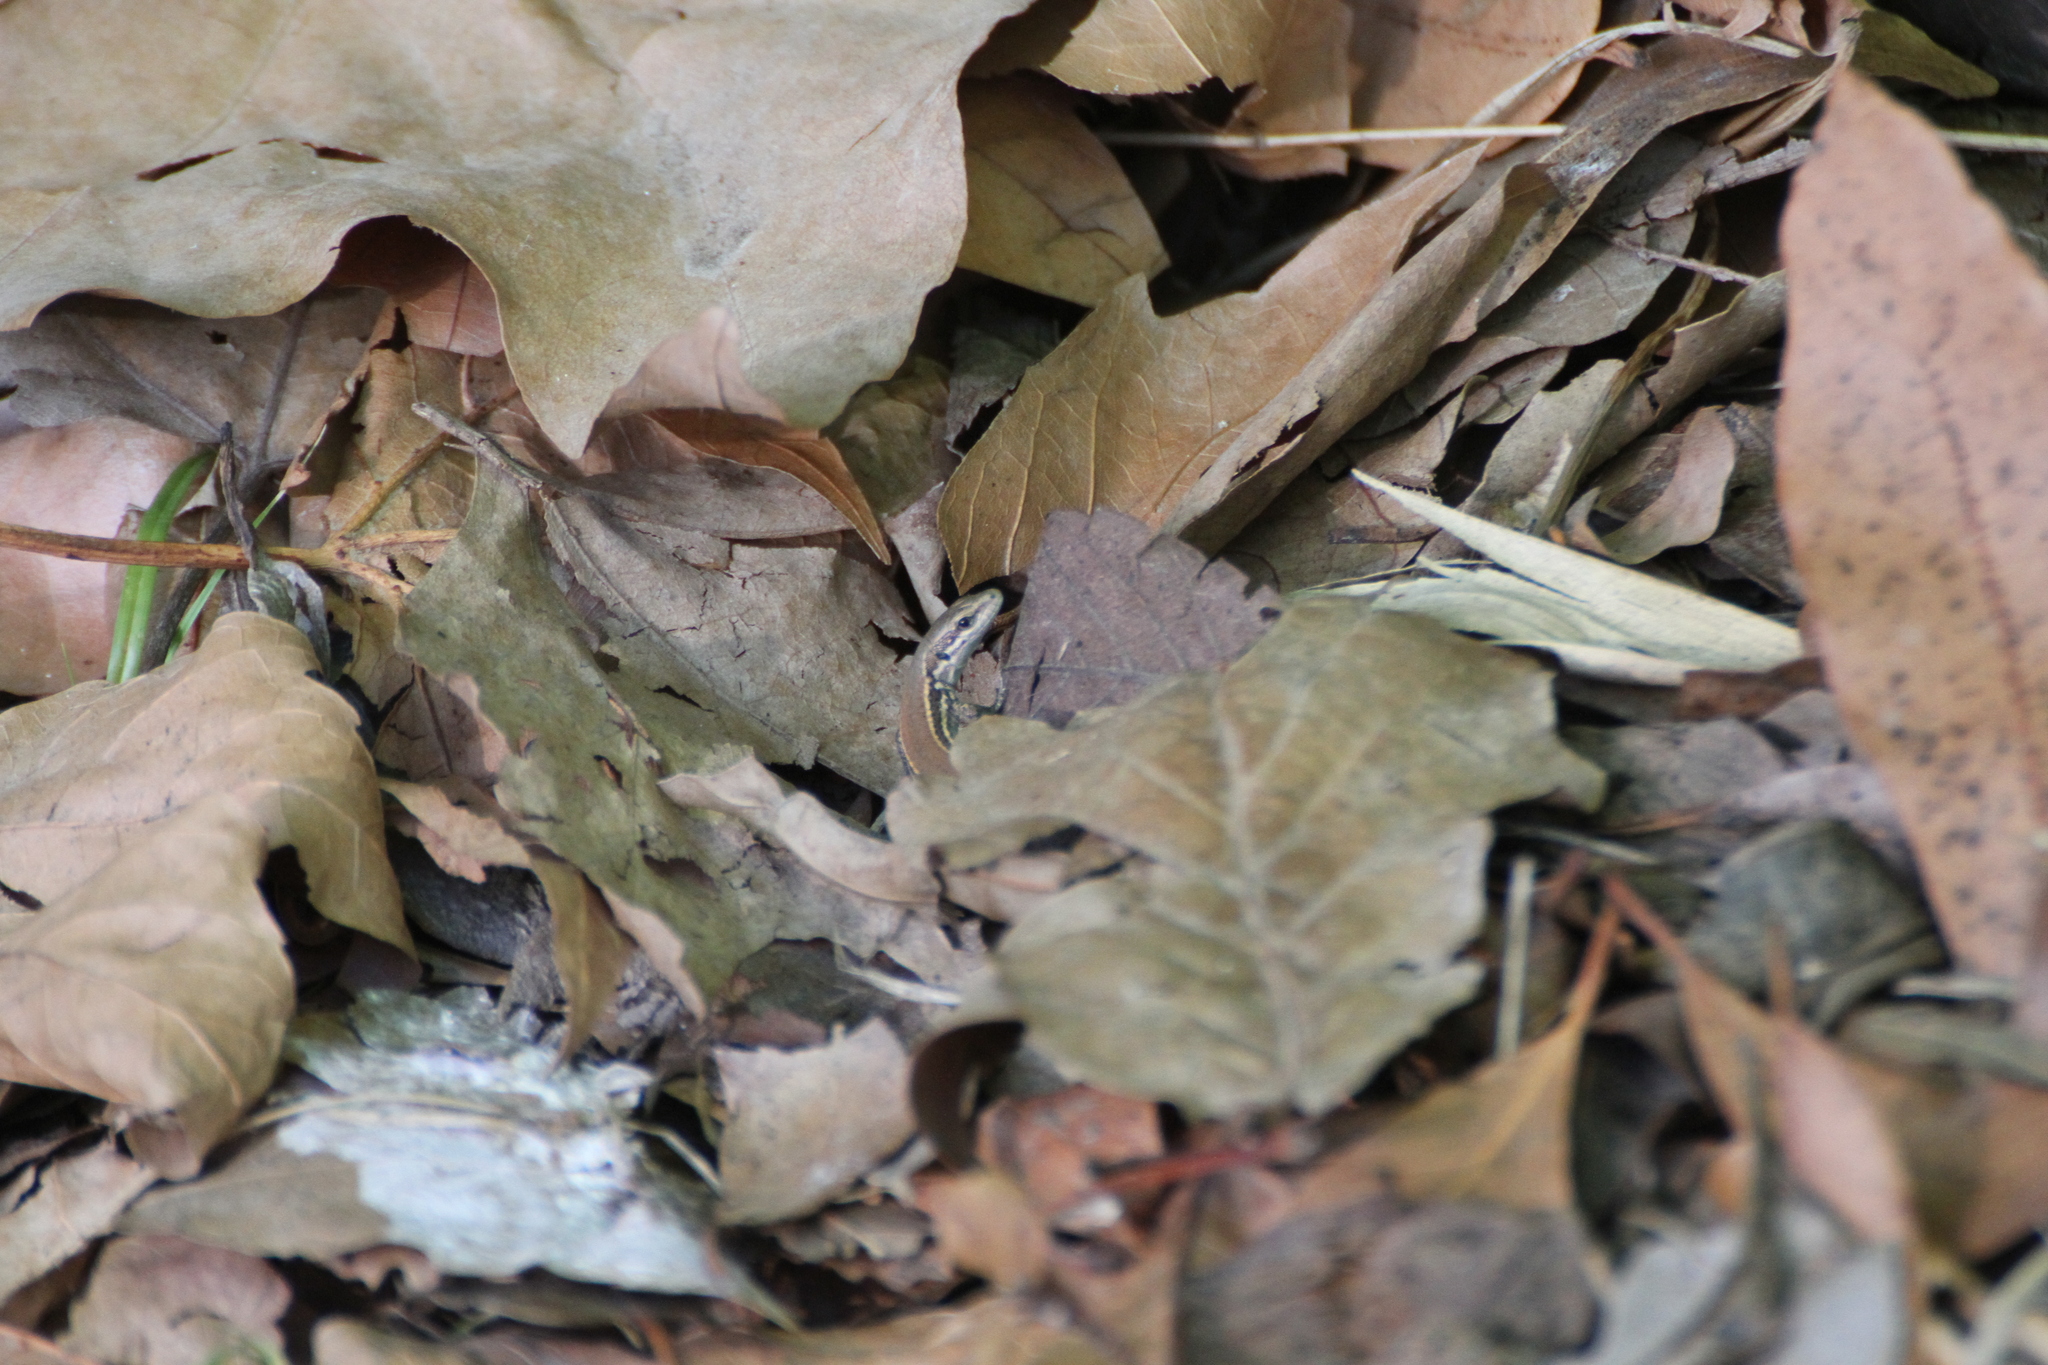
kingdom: Animalia
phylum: Chordata
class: Squamata
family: Lacertidae
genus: Podarcis
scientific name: Podarcis muralis
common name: Common wall lizard
